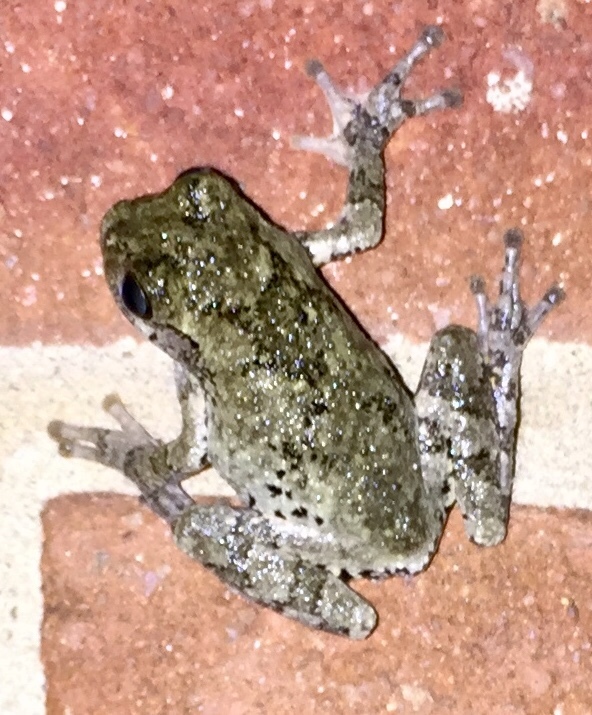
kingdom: Animalia
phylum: Chordata
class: Amphibia
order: Anura
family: Hylidae
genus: Dryophytes
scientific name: Dryophytes chrysoscelis
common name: Cope's gray treefrog
